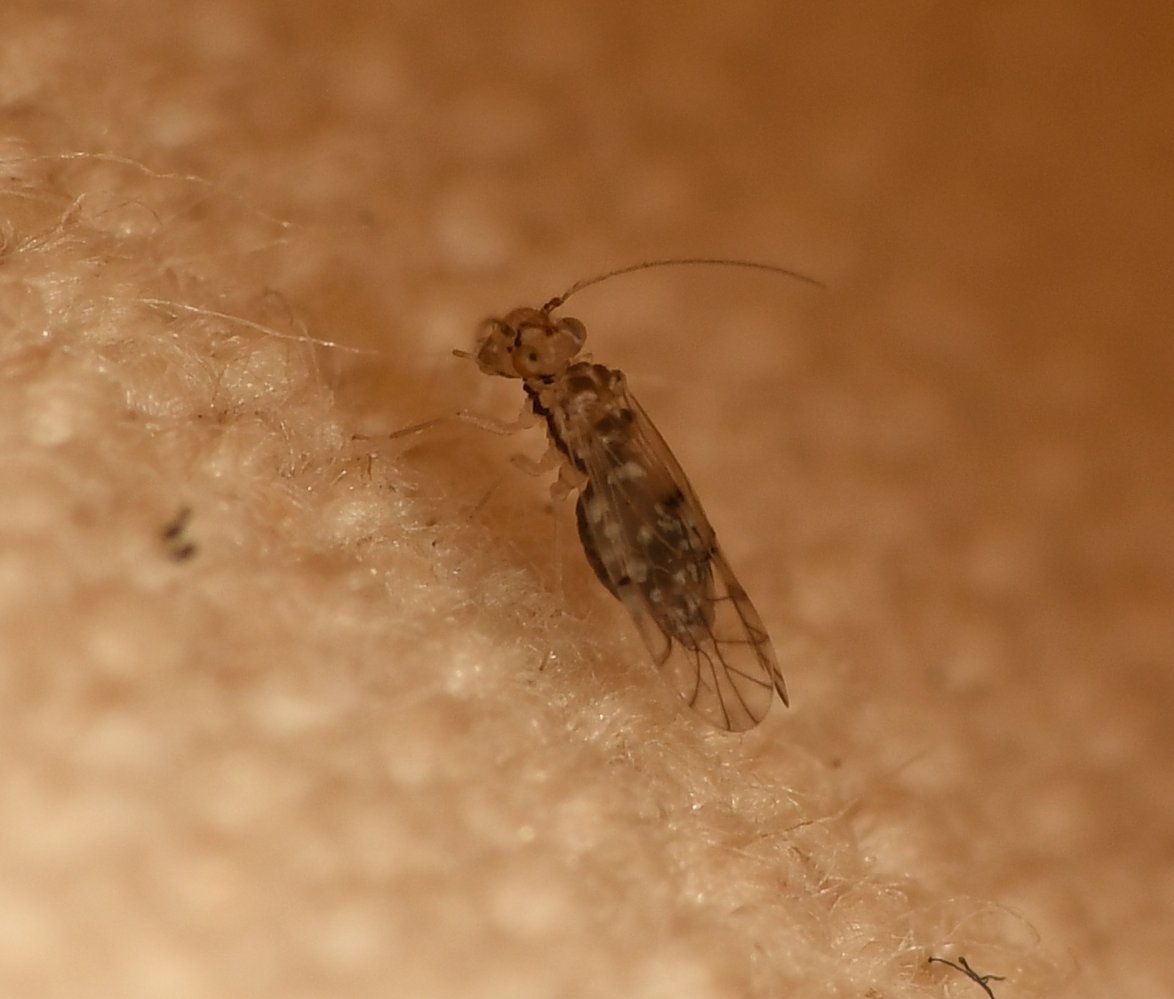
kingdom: Animalia
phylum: Arthropoda
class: Insecta
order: Psocodea
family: Lachesillidae
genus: Lachesilla
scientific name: Lachesilla floridana
